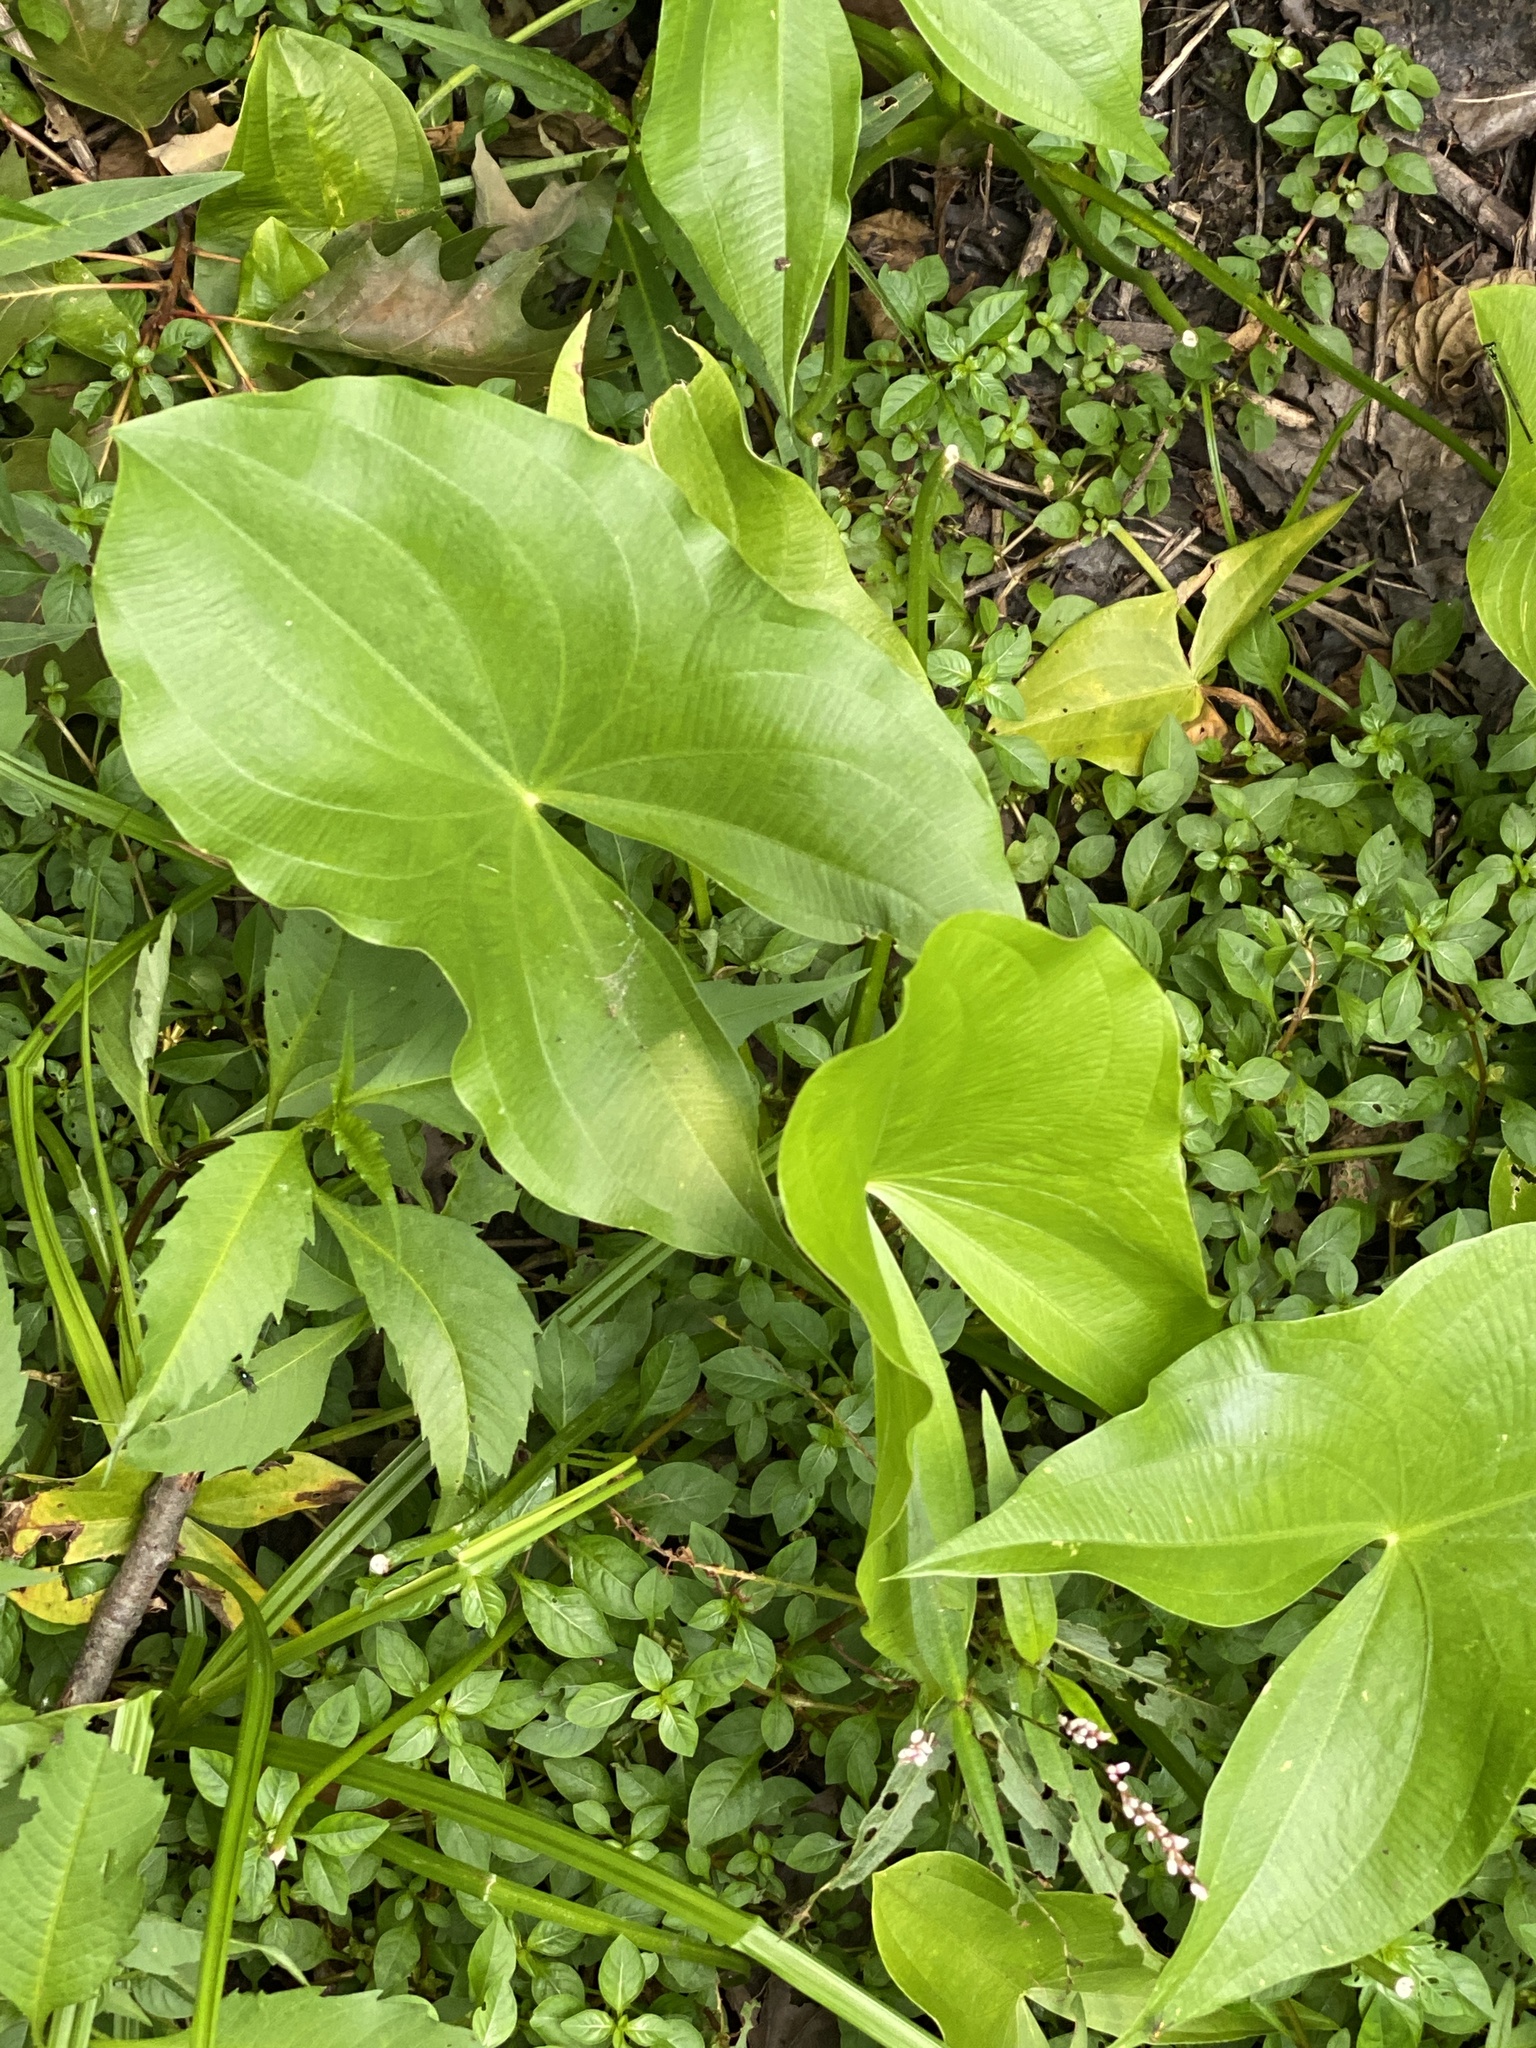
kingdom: Plantae
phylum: Tracheophyta
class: Liliopsida
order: Alismatales
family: Alismataceae
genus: Sagittaria
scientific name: Sagittaria latifolia
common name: Duck-potato
